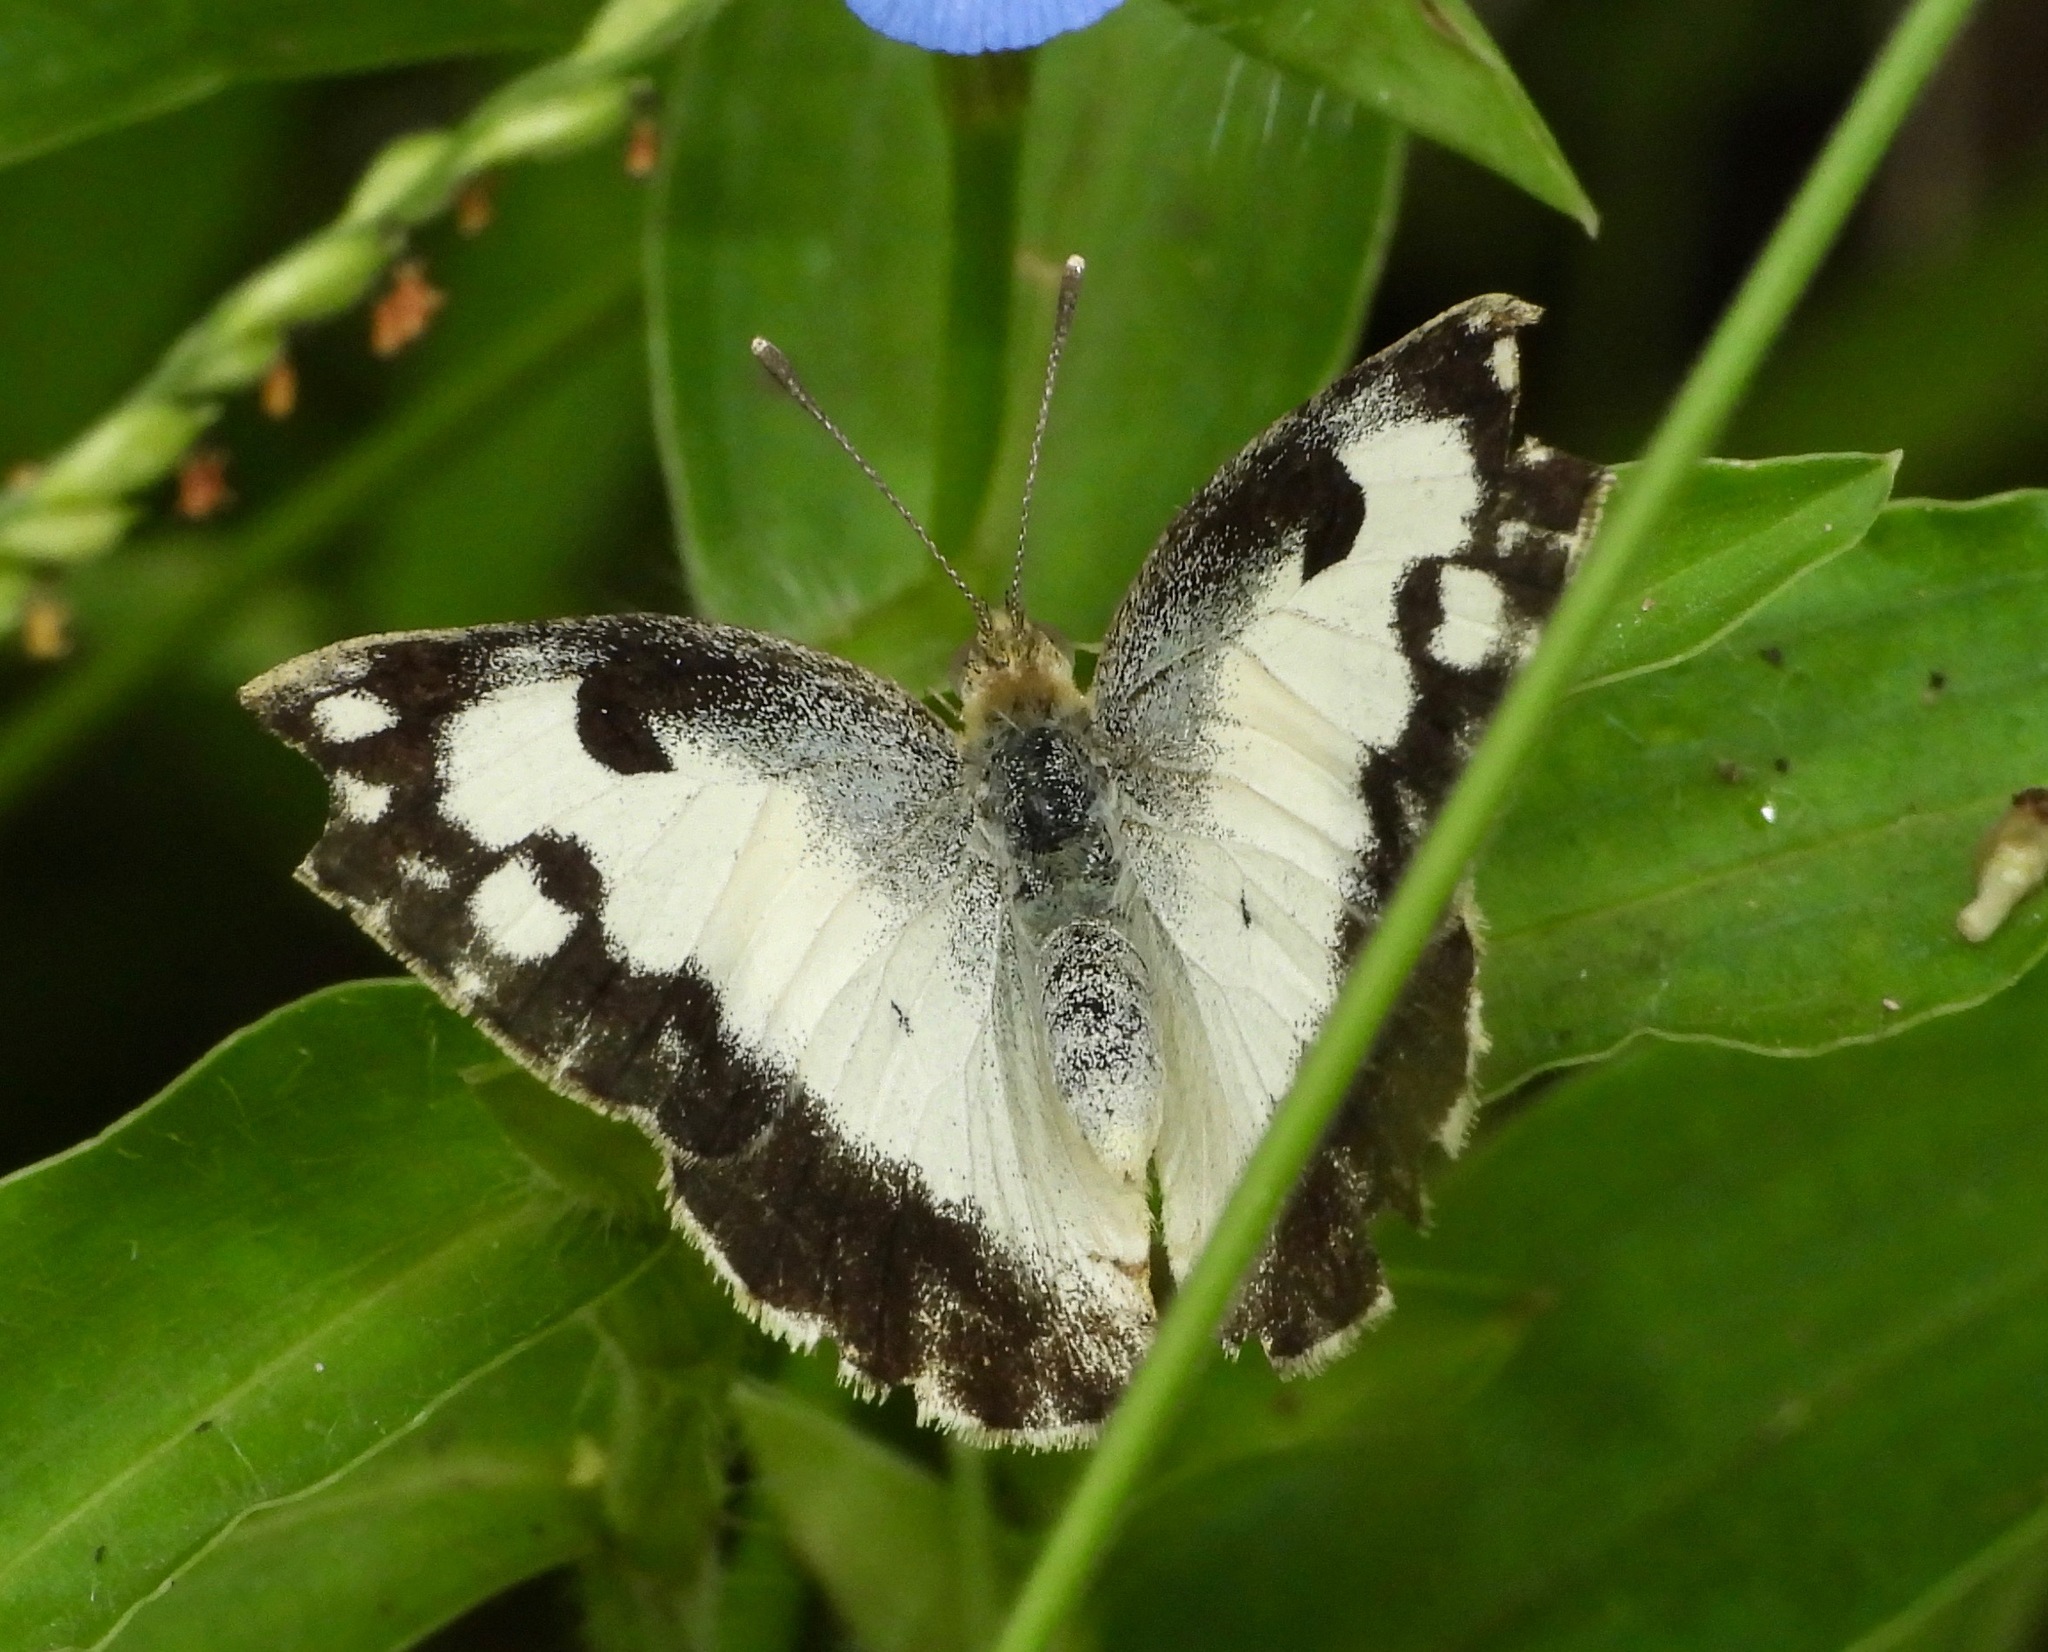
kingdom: Animalia
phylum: Arthropoda
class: Insecta
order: Lepidoptera
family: Pieridae
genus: Colotis
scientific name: Colotis phisadia
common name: Blue spotted arab
